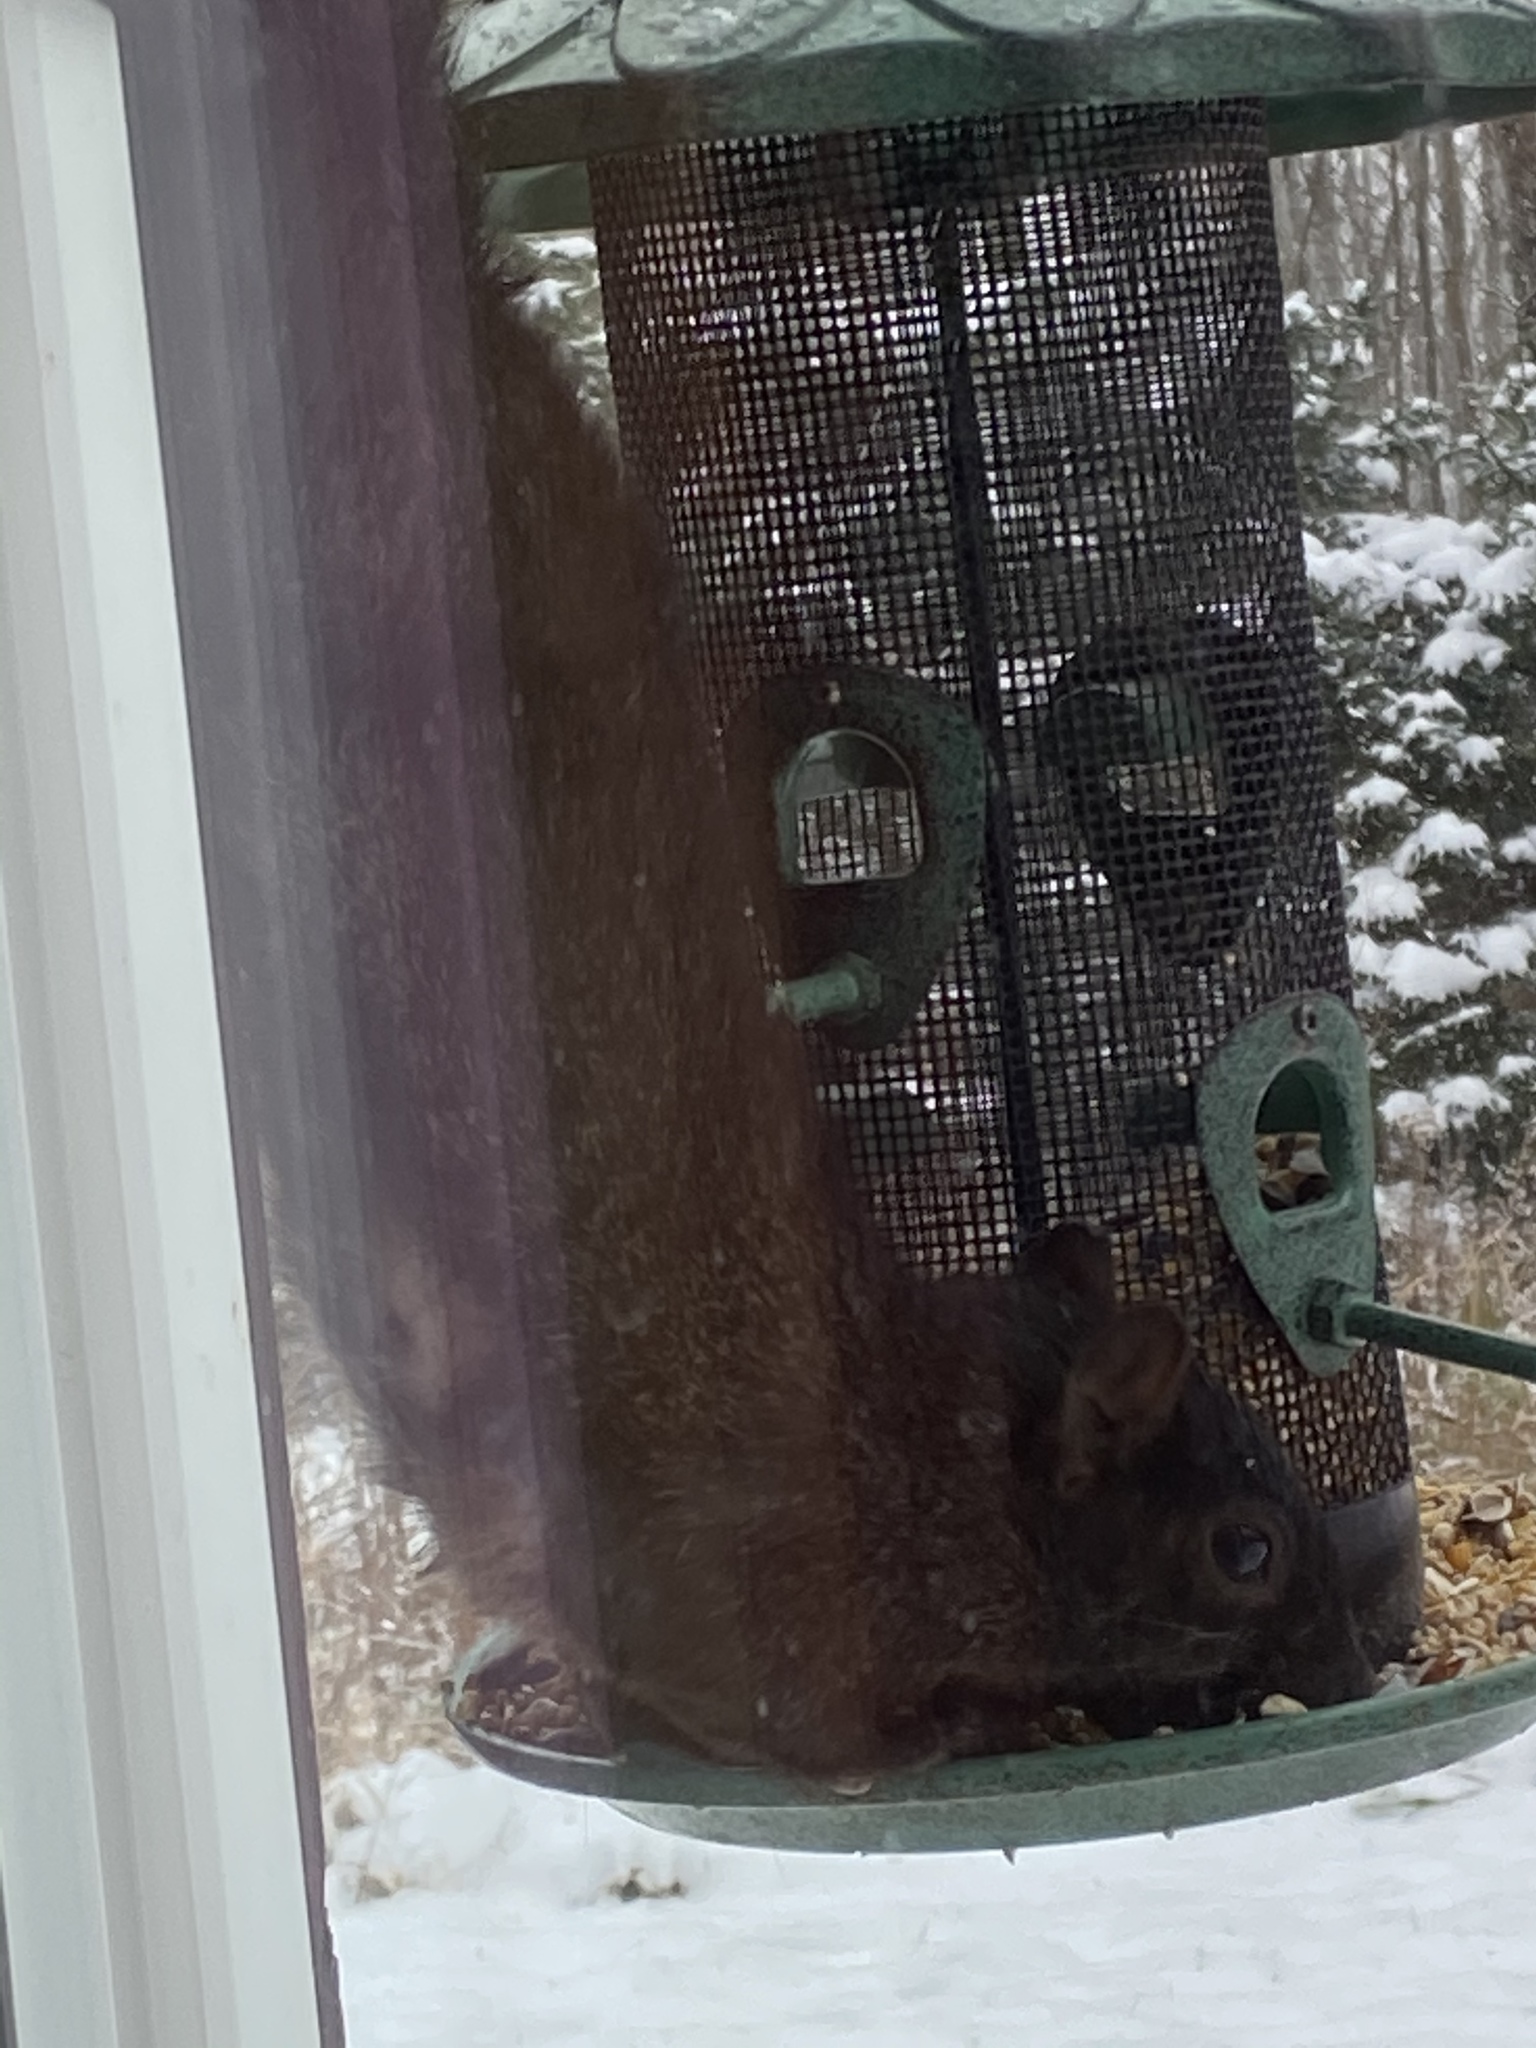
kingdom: Animalia
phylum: Chordata
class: Mammalia
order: Rodentia
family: Sciuridae
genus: Sciurus
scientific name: Sciurus carolinensis
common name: Eastern gray squirrel
